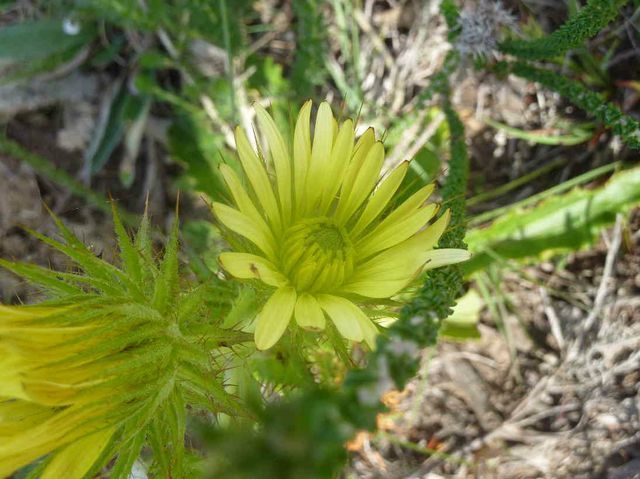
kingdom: Plantae
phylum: Tracheophyta
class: Magnoliopsida
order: Asterales
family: Asteraceae
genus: Berkheya
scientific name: Berkheya carlinoides
